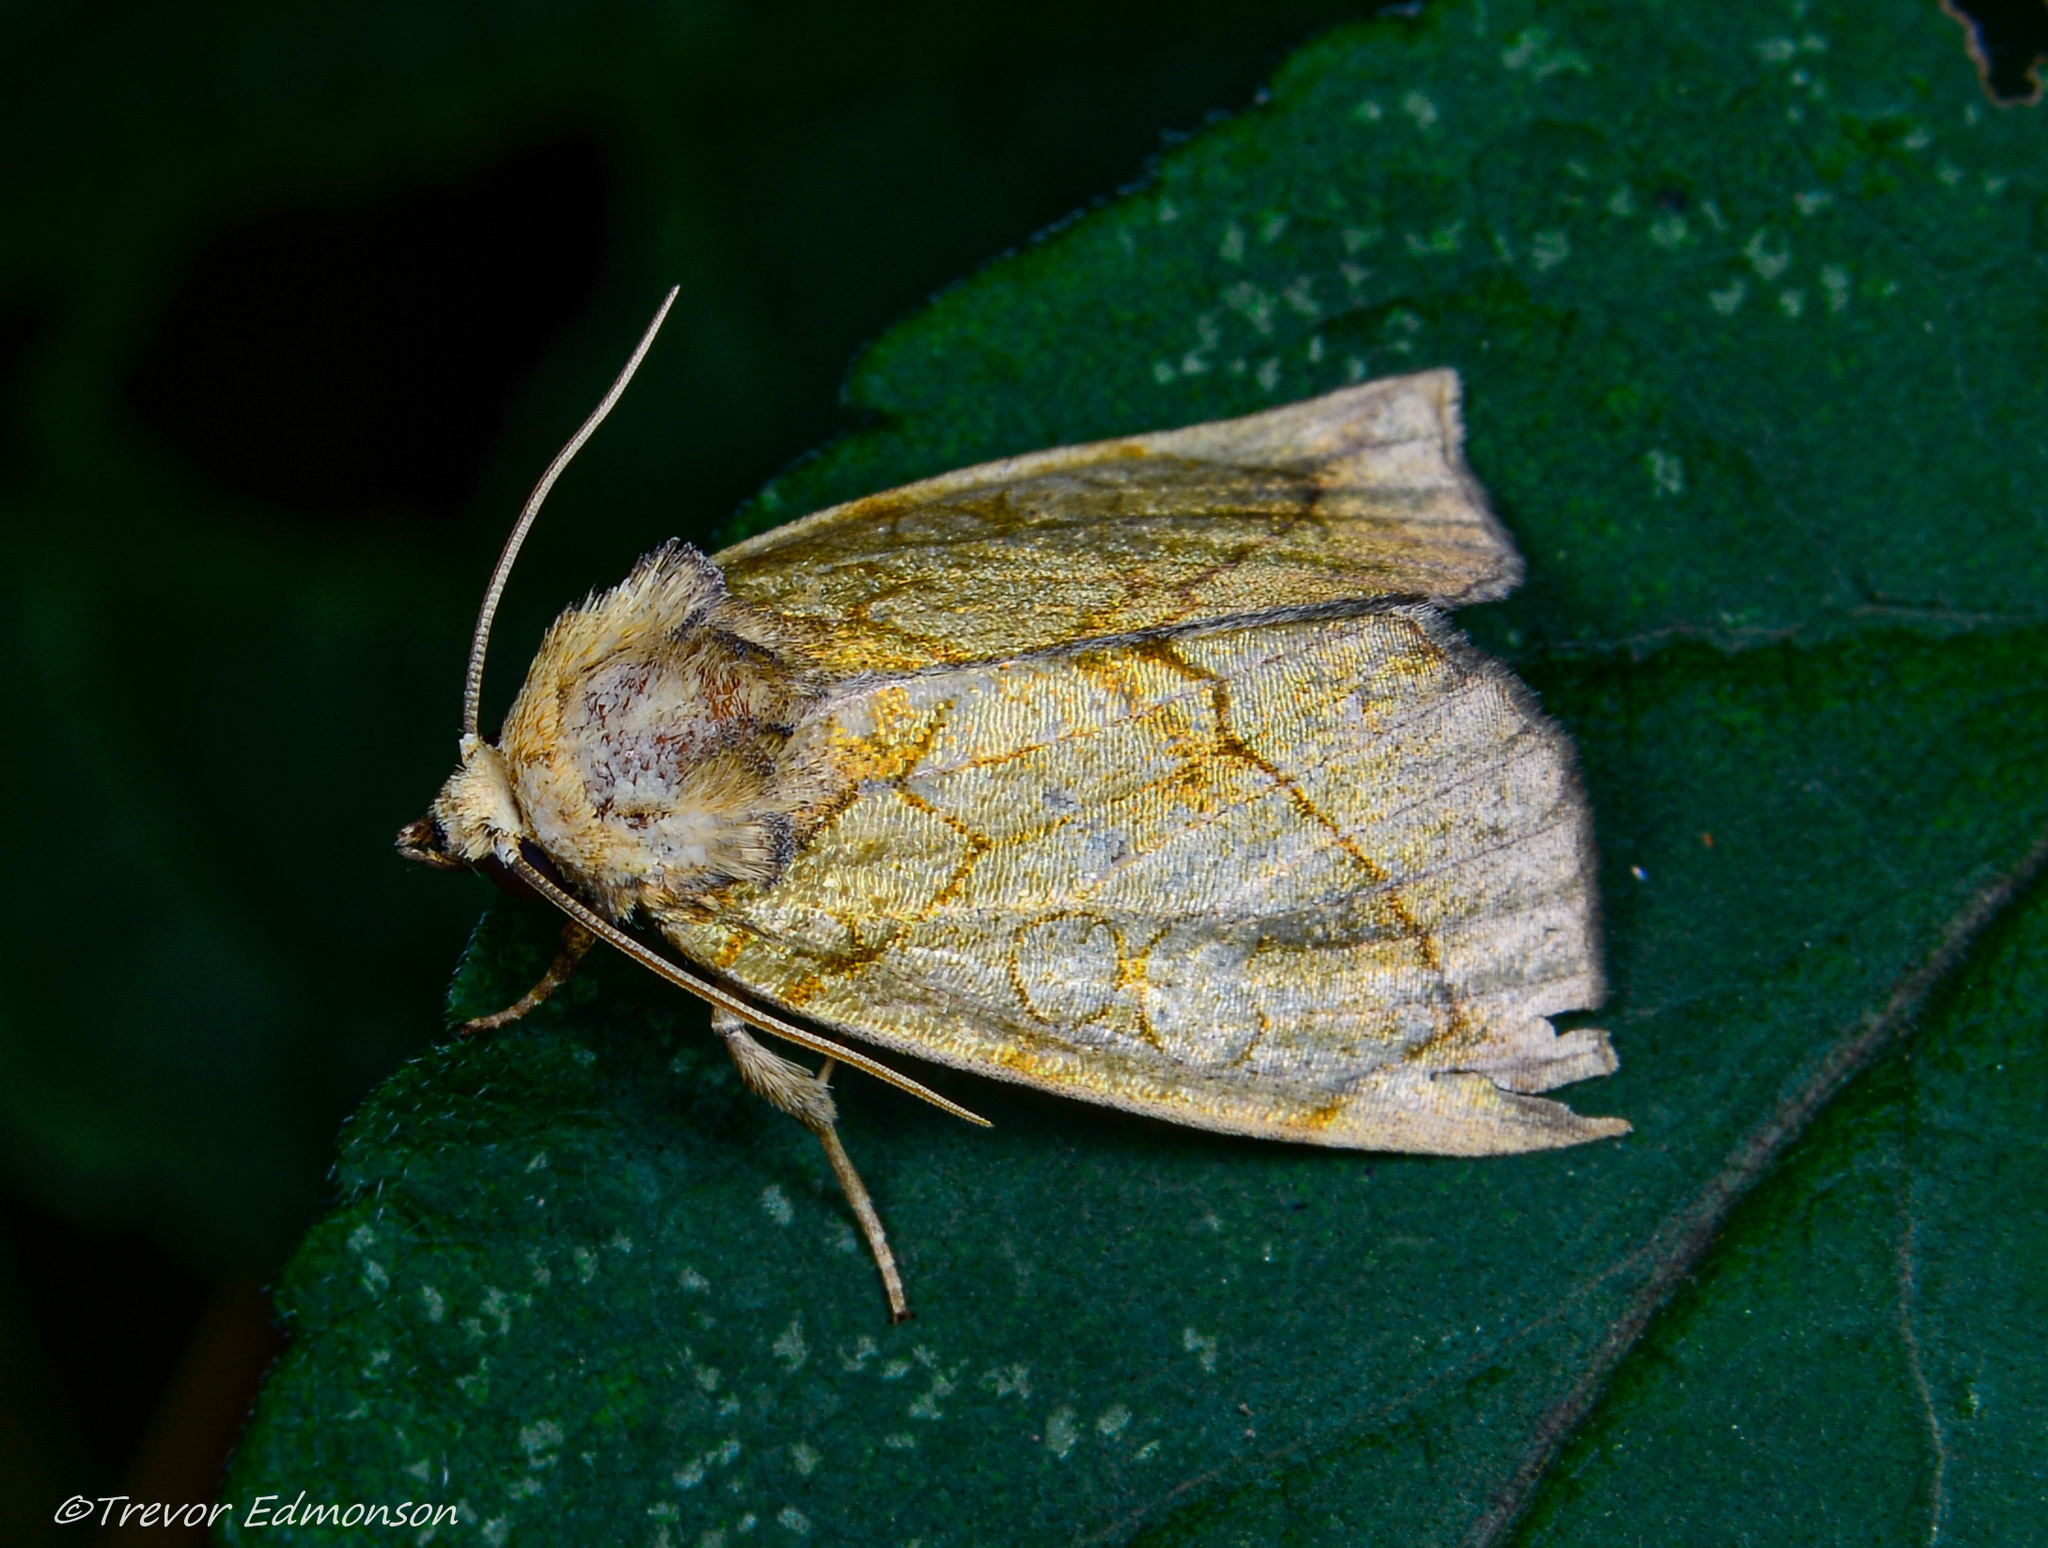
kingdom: Animalia
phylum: Arthropoda
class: Insecta
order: Lepidoptera
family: Noctuidae
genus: Basilodes
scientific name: Basilodes pepita
